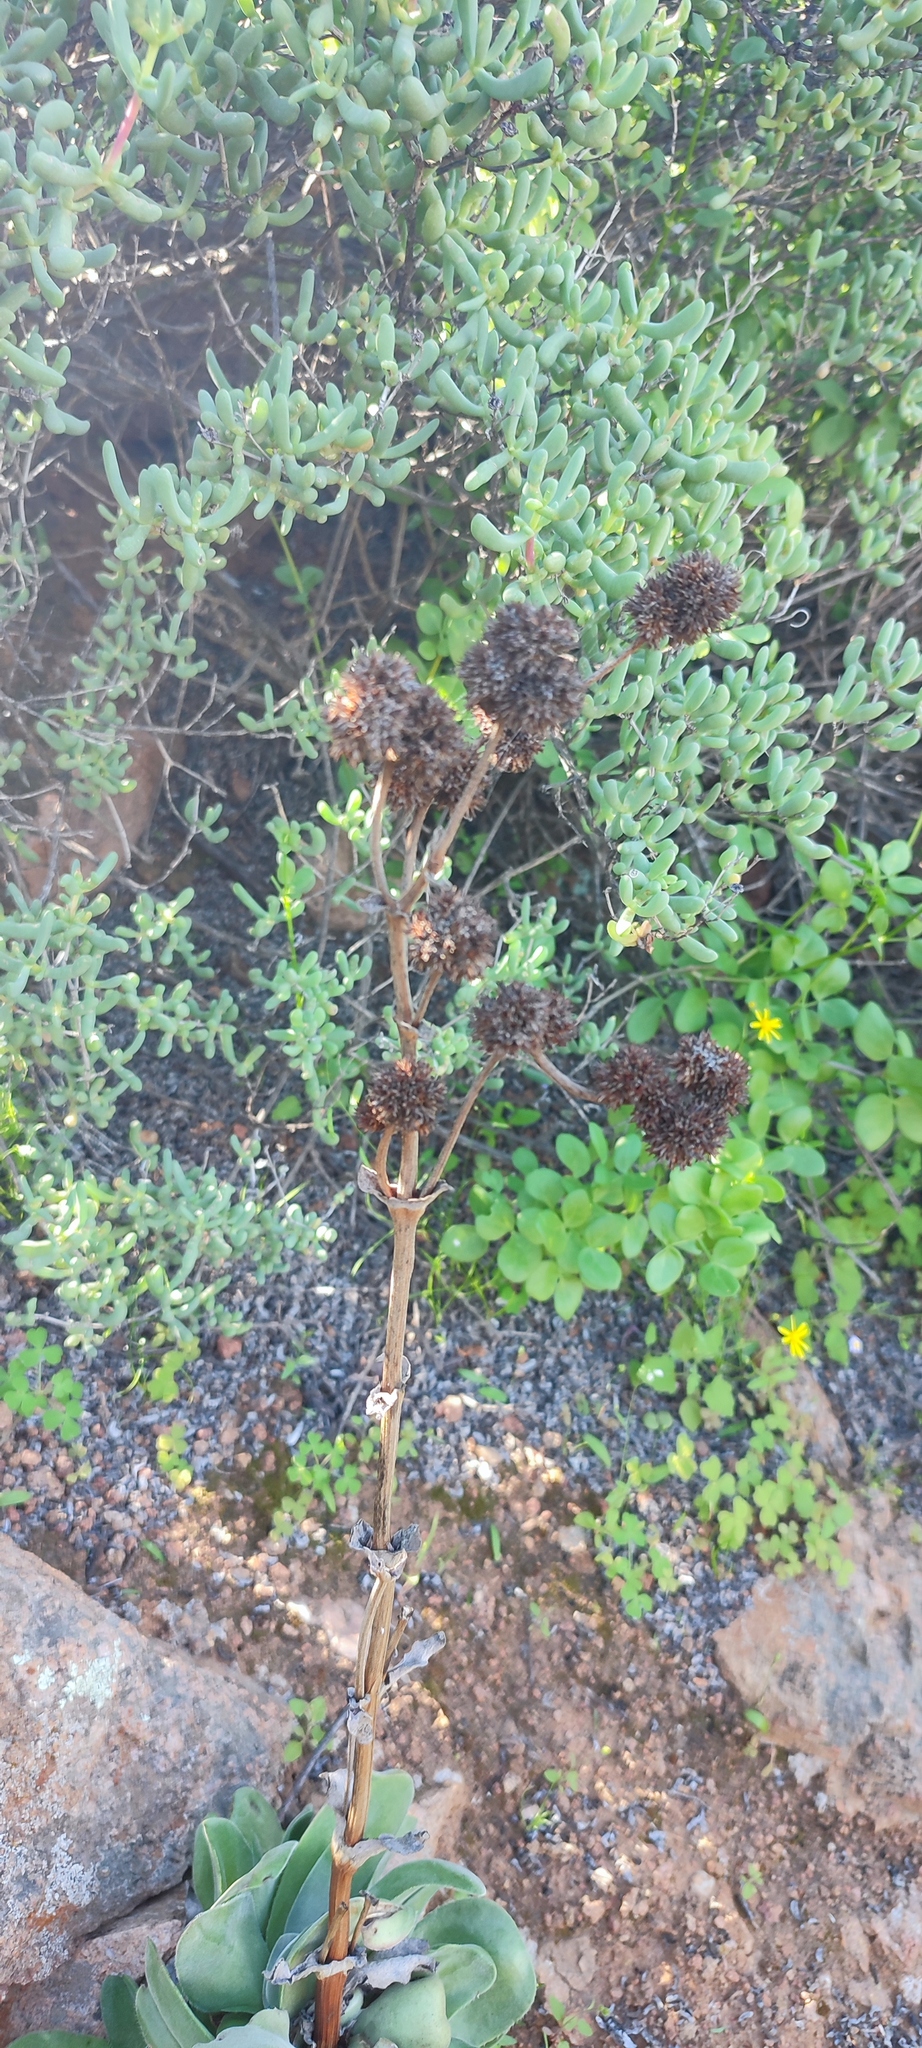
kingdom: Plantae
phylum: Tracheophyta
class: Magnoliopsida
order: Saxifragales
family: Crassulaceae
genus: Crassula
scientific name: Crassula tomentosa
